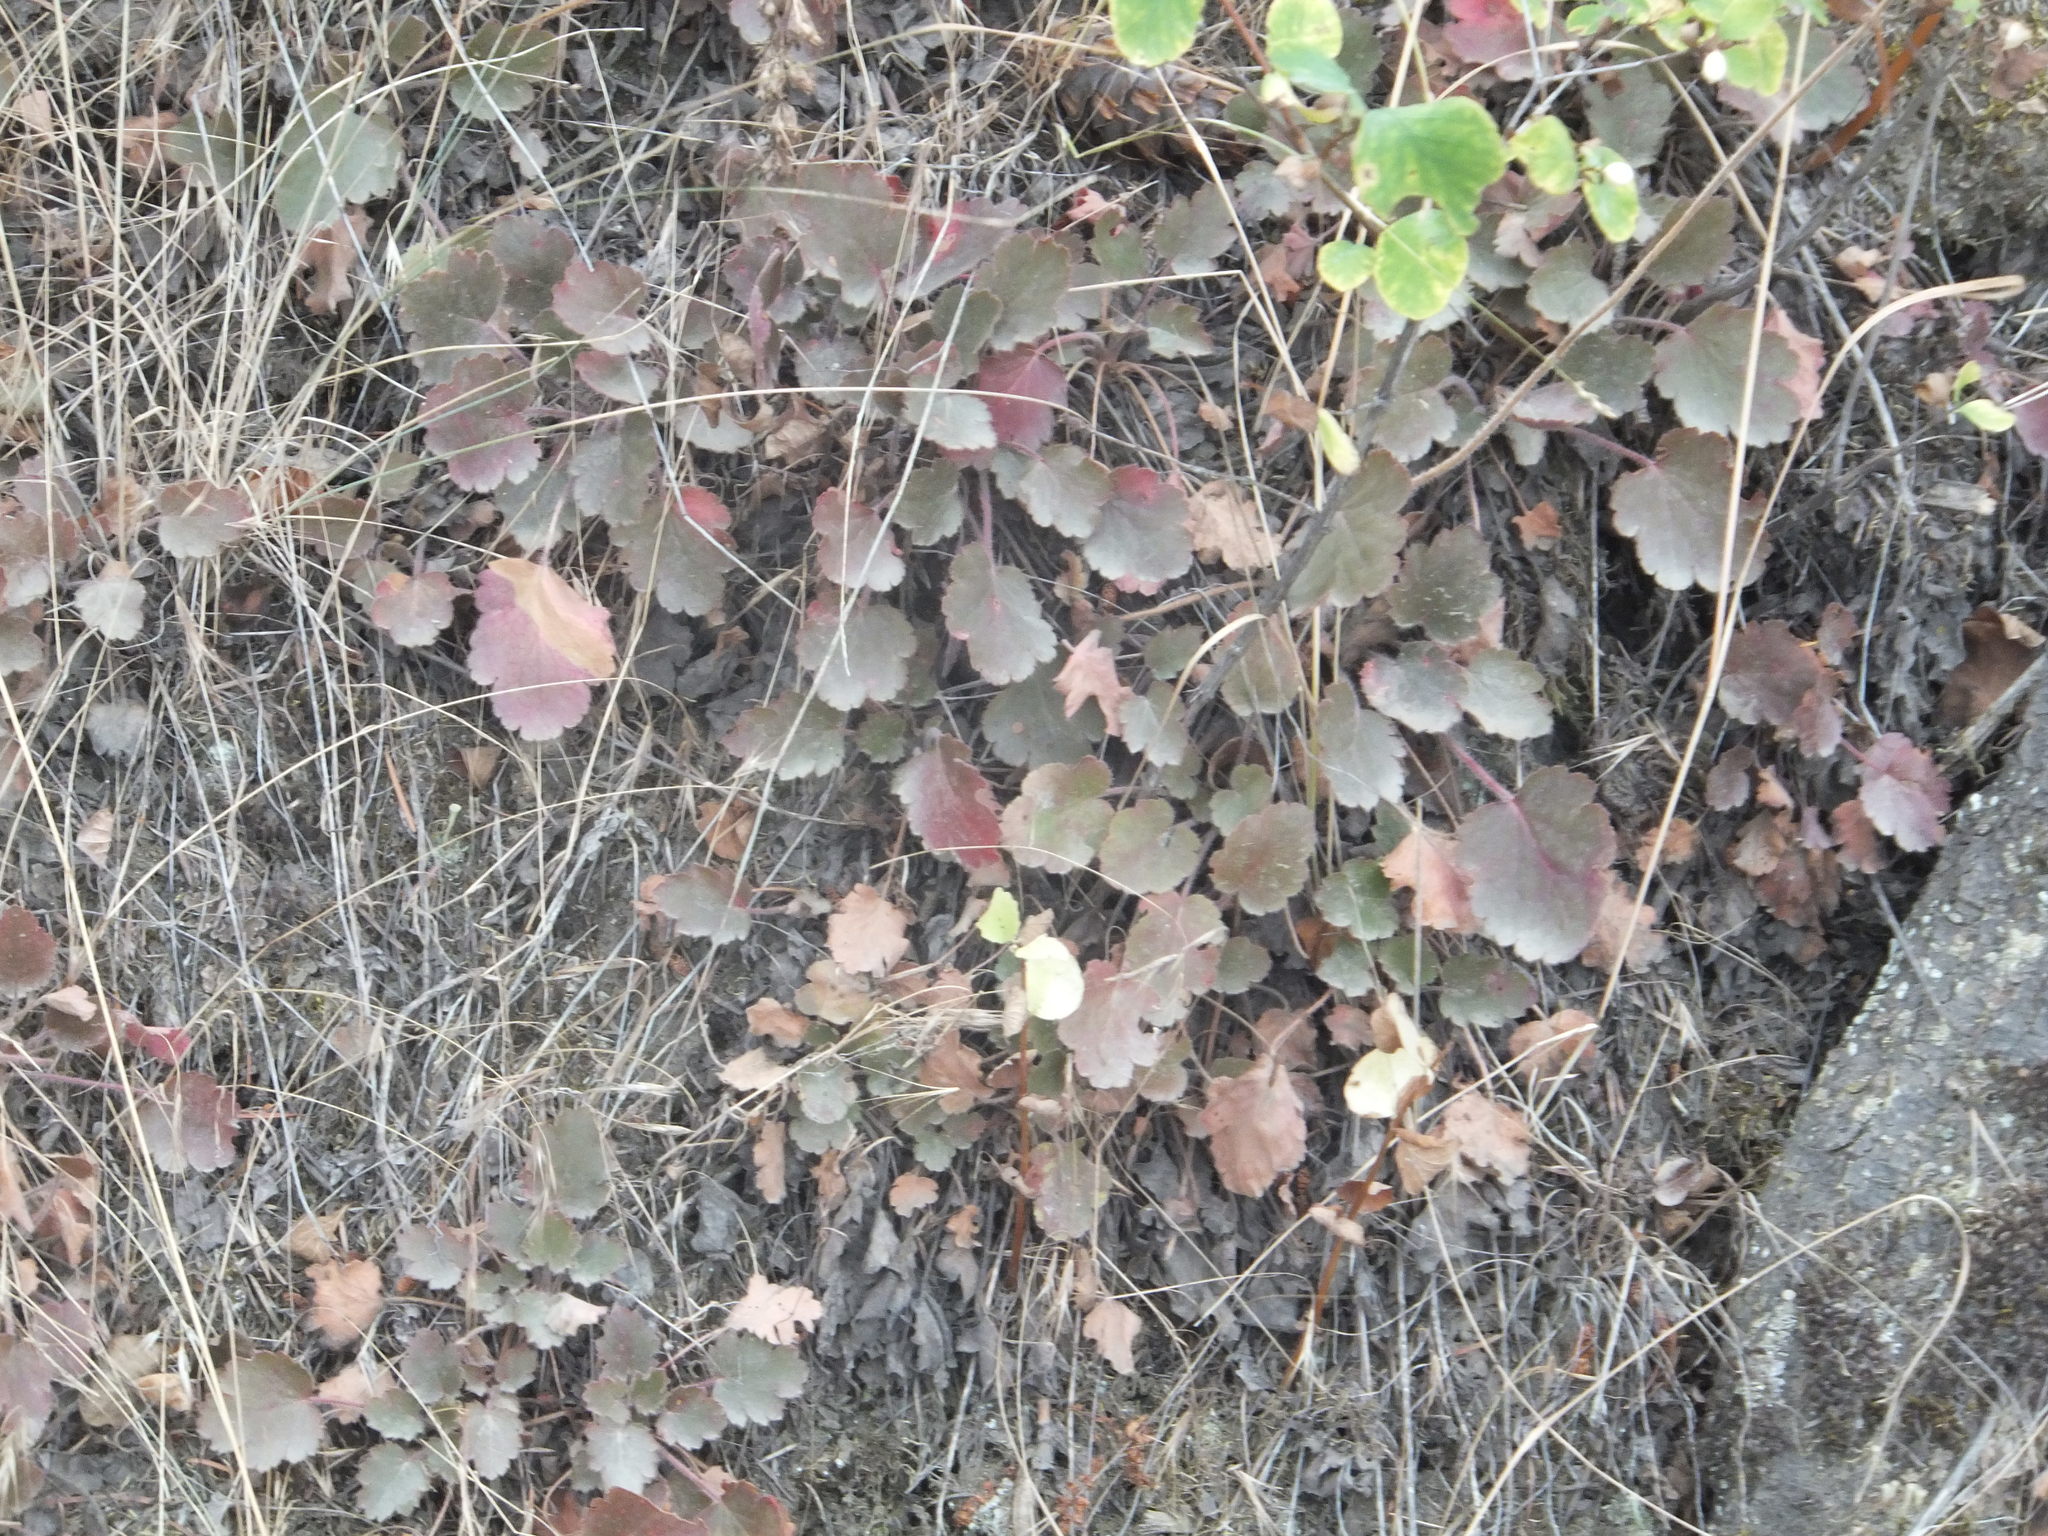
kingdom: Plantae
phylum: Tracheophyta
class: Magnoliopsida
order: Saxifragales
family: Saxifragaceae
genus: Heuchera
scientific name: Heuchera cylindrica
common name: Mat alumroot
